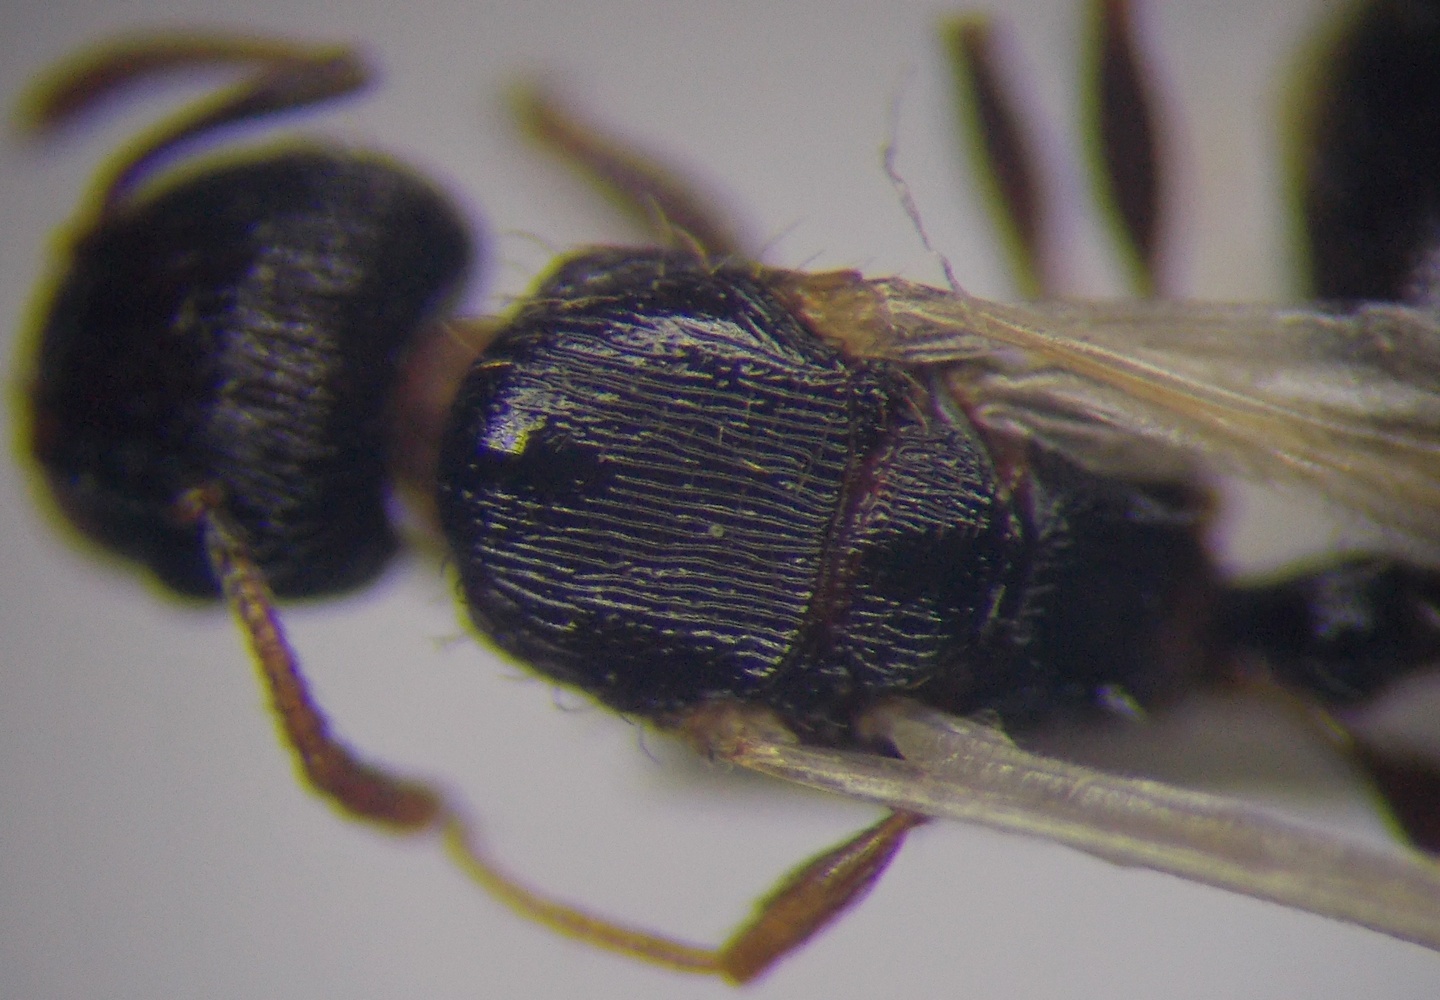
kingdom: Animalia
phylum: Arthropoda
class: Insecta
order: Hymenoptera
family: Formicidae
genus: Tetramorium
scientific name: Tetramorium chefketi
